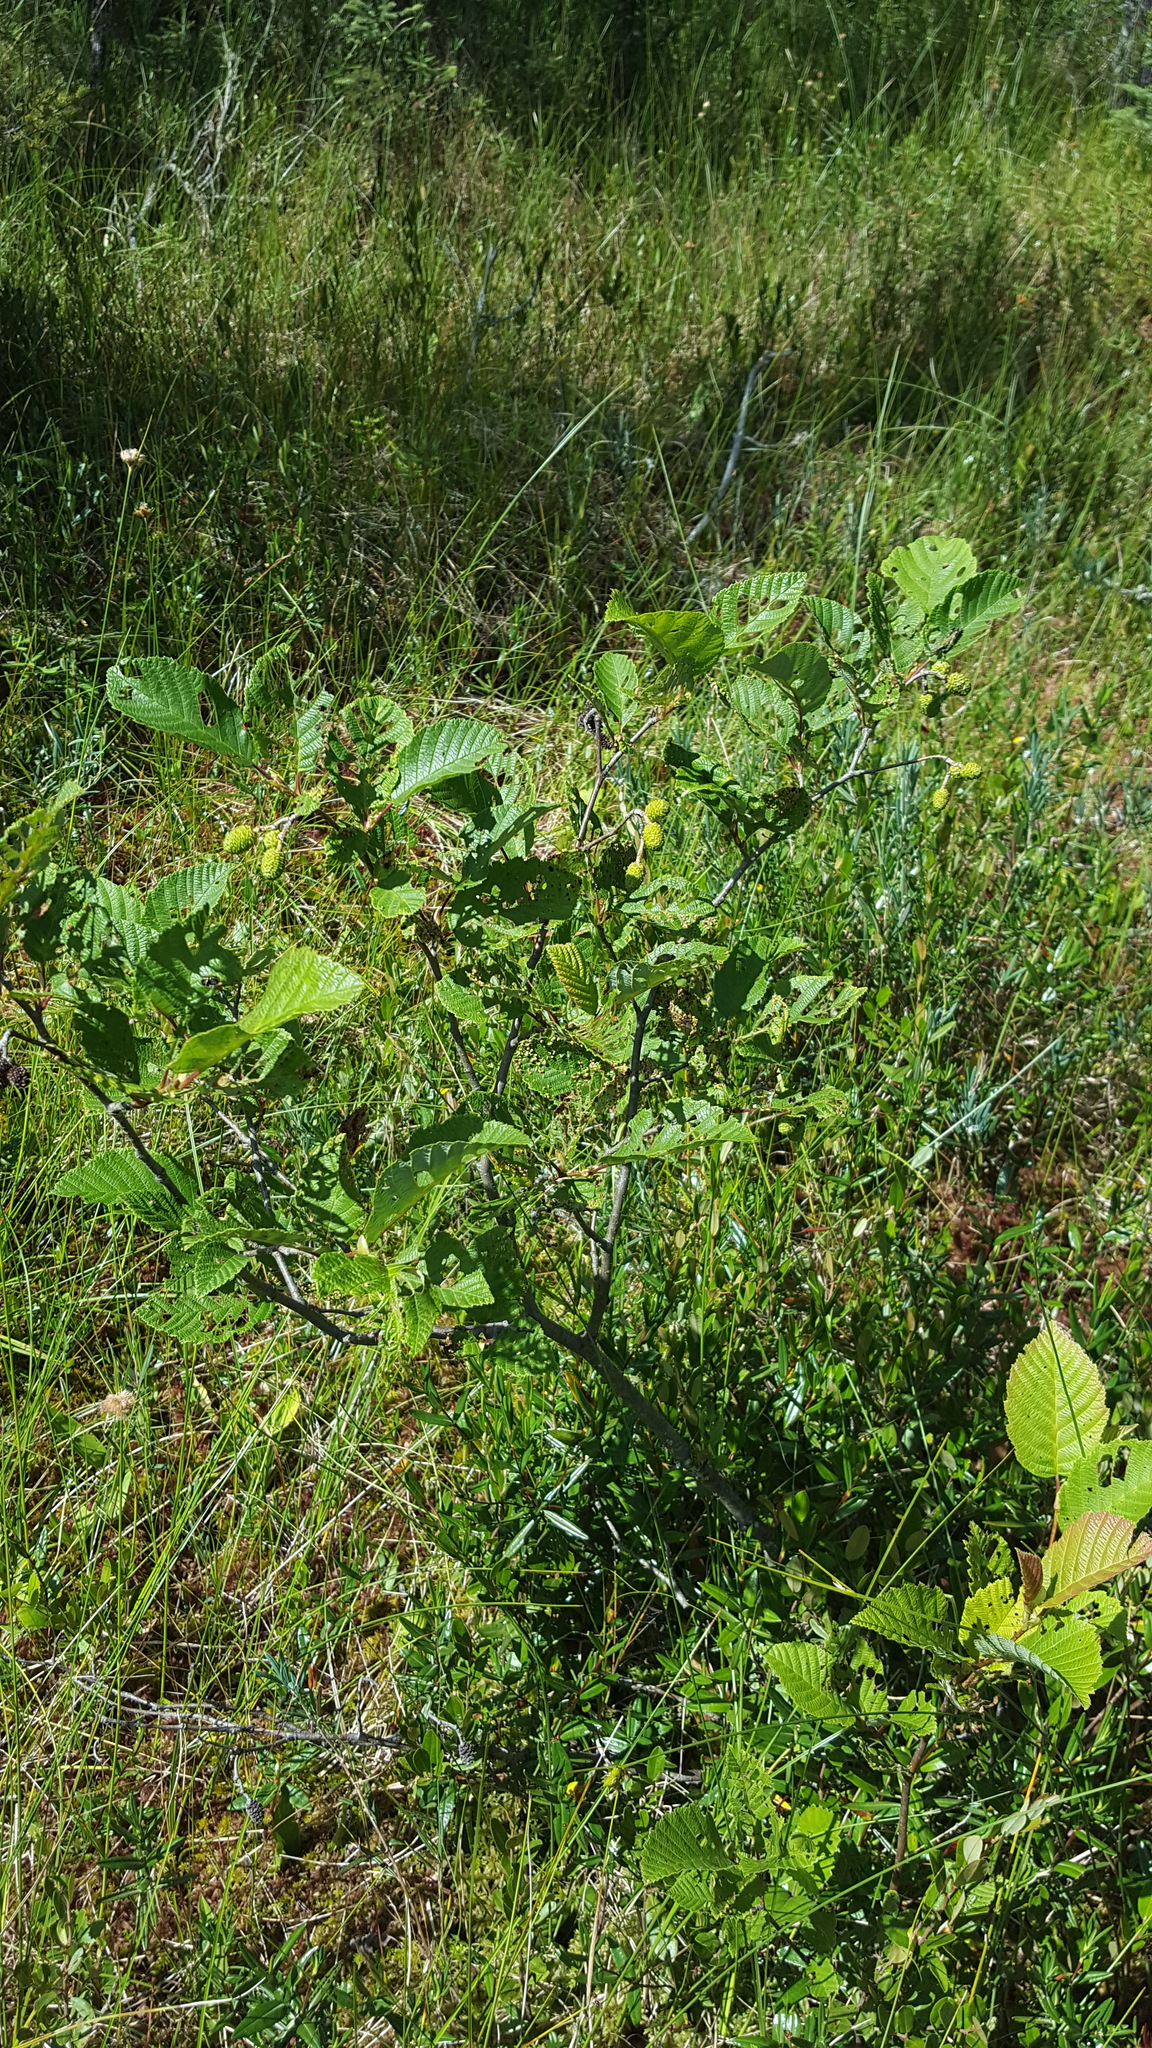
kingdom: Plantae
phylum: Tracheophyta
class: Magnoliopsida
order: Fagales
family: Betulaceae
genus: Alnus
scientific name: Alnus incana
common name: Grey alder
